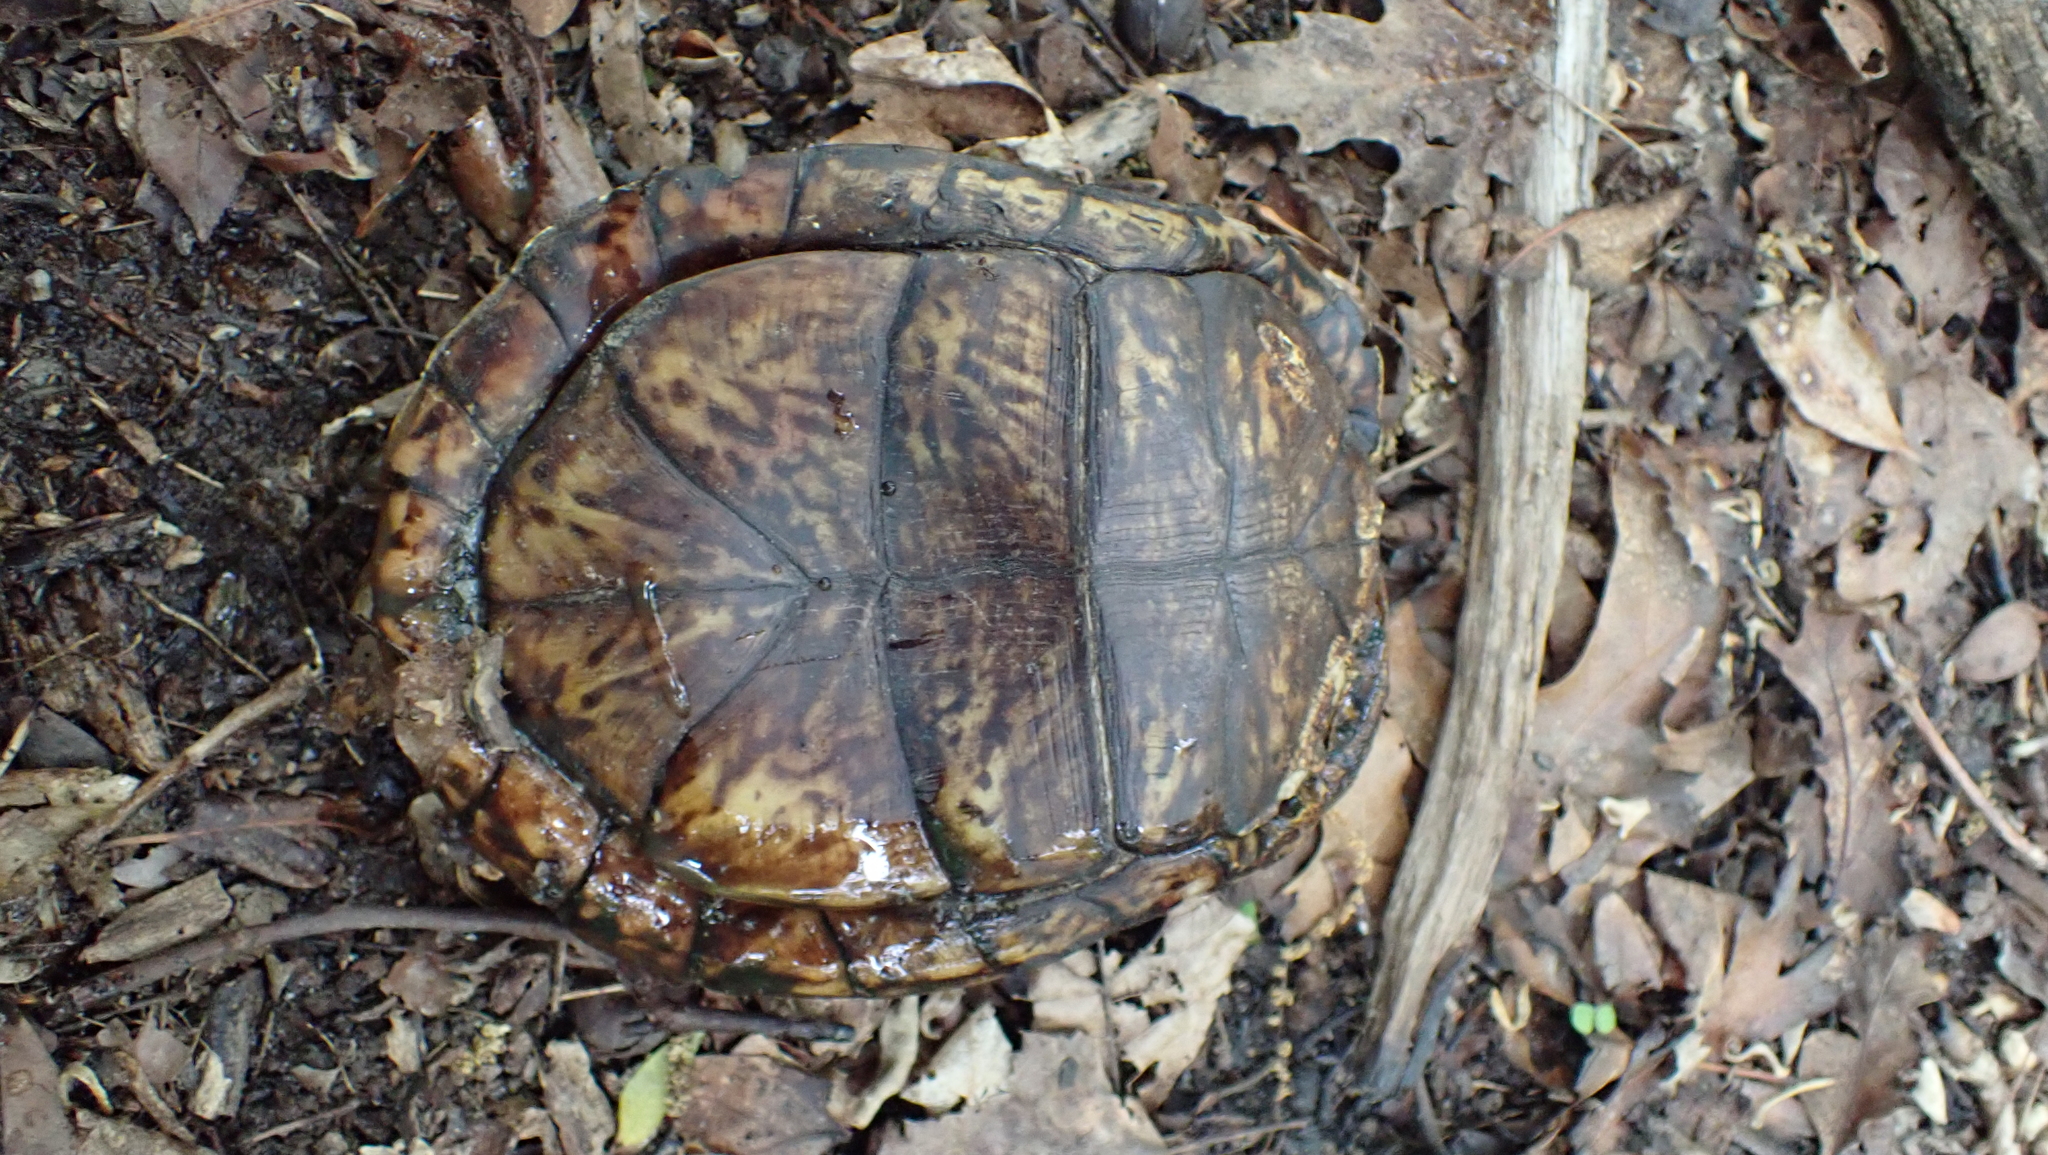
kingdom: Animalia
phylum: Chordata
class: Testudines
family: Emydidae
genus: Terrapene
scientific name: Terrapene carolina
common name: Common box turtle
